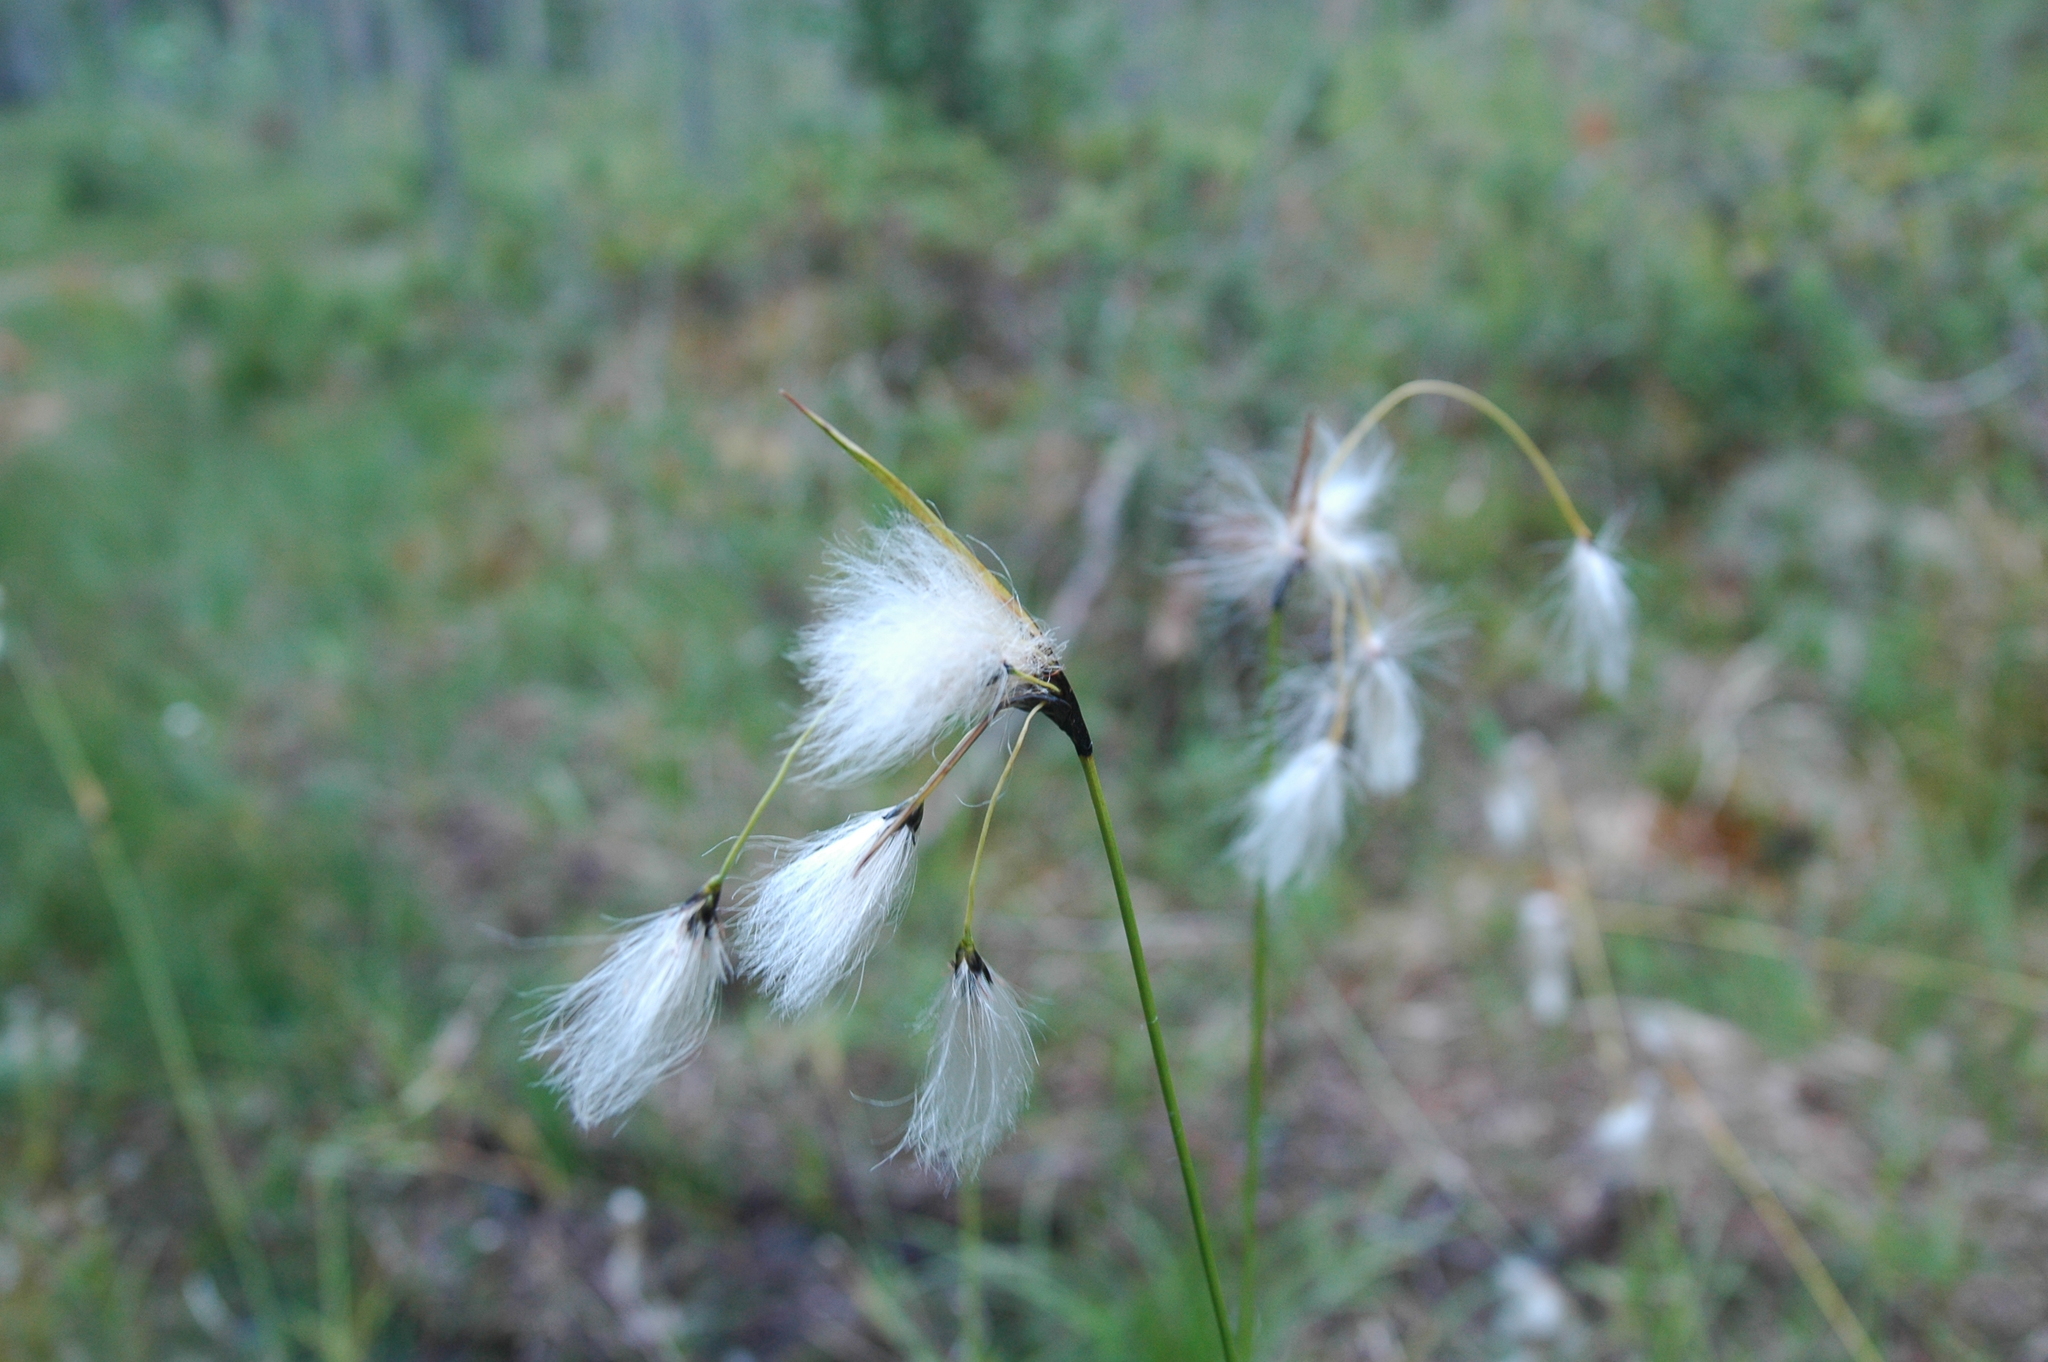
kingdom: Plantae
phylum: Tracheophyta
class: Liliopsida
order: Poales
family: Cyperaceae
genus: Eriophorum
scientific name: Eriophorum angustifolium
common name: Common cottongrass
